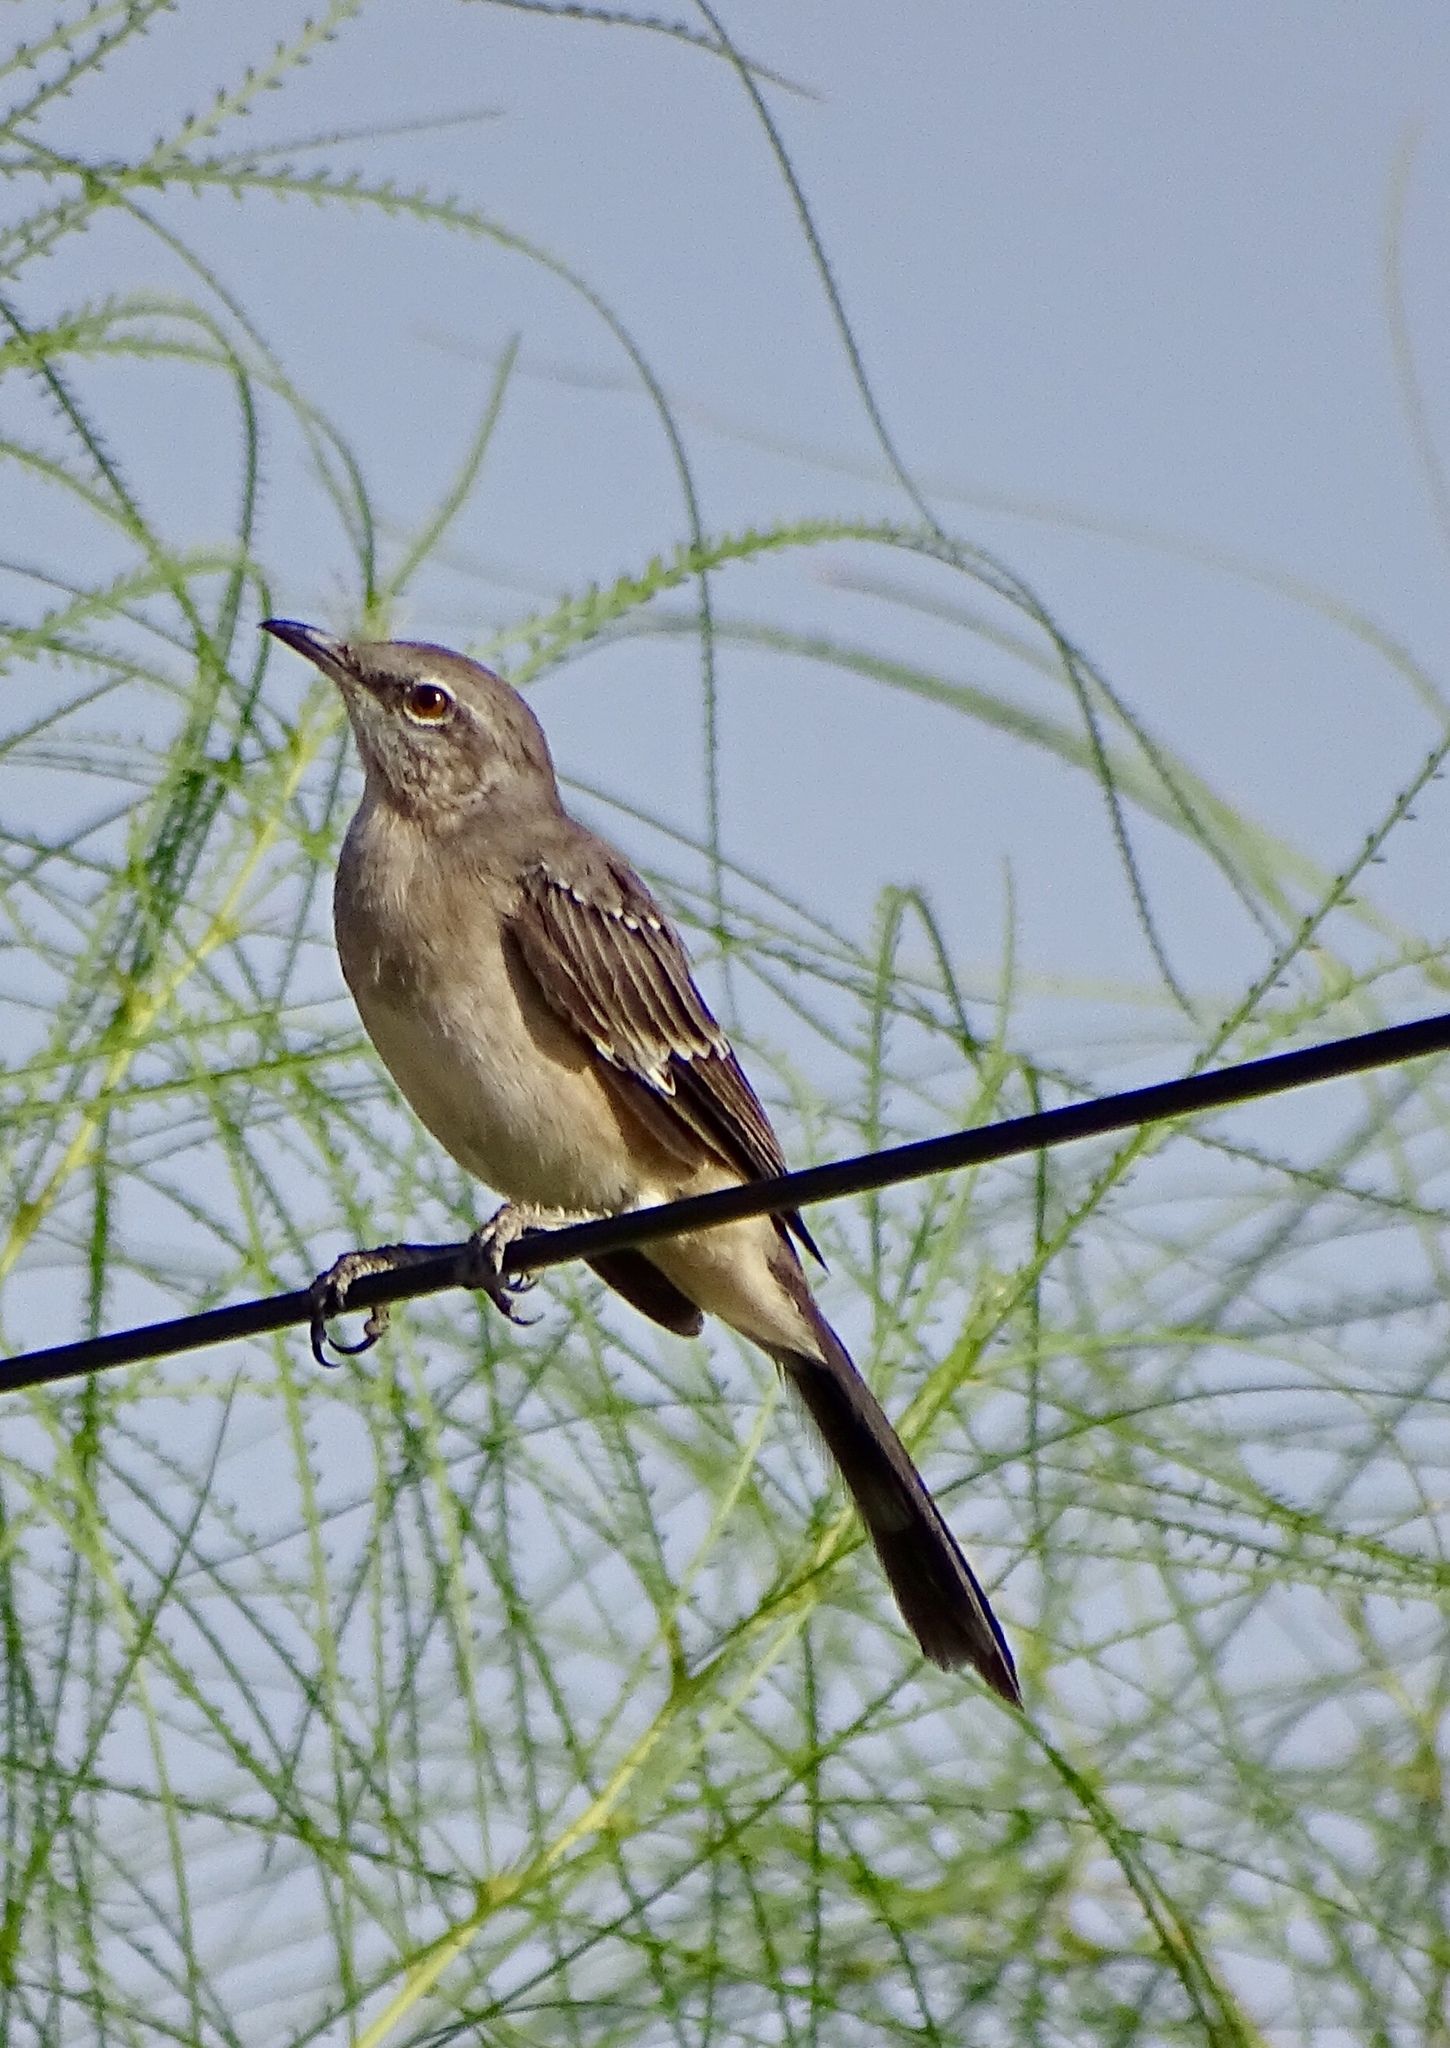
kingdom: Animalia
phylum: Chordata
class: Aves
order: Passeriformes
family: Mimidae
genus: Mimus
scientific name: Mimus polyglottos
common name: Northern mockingbird
